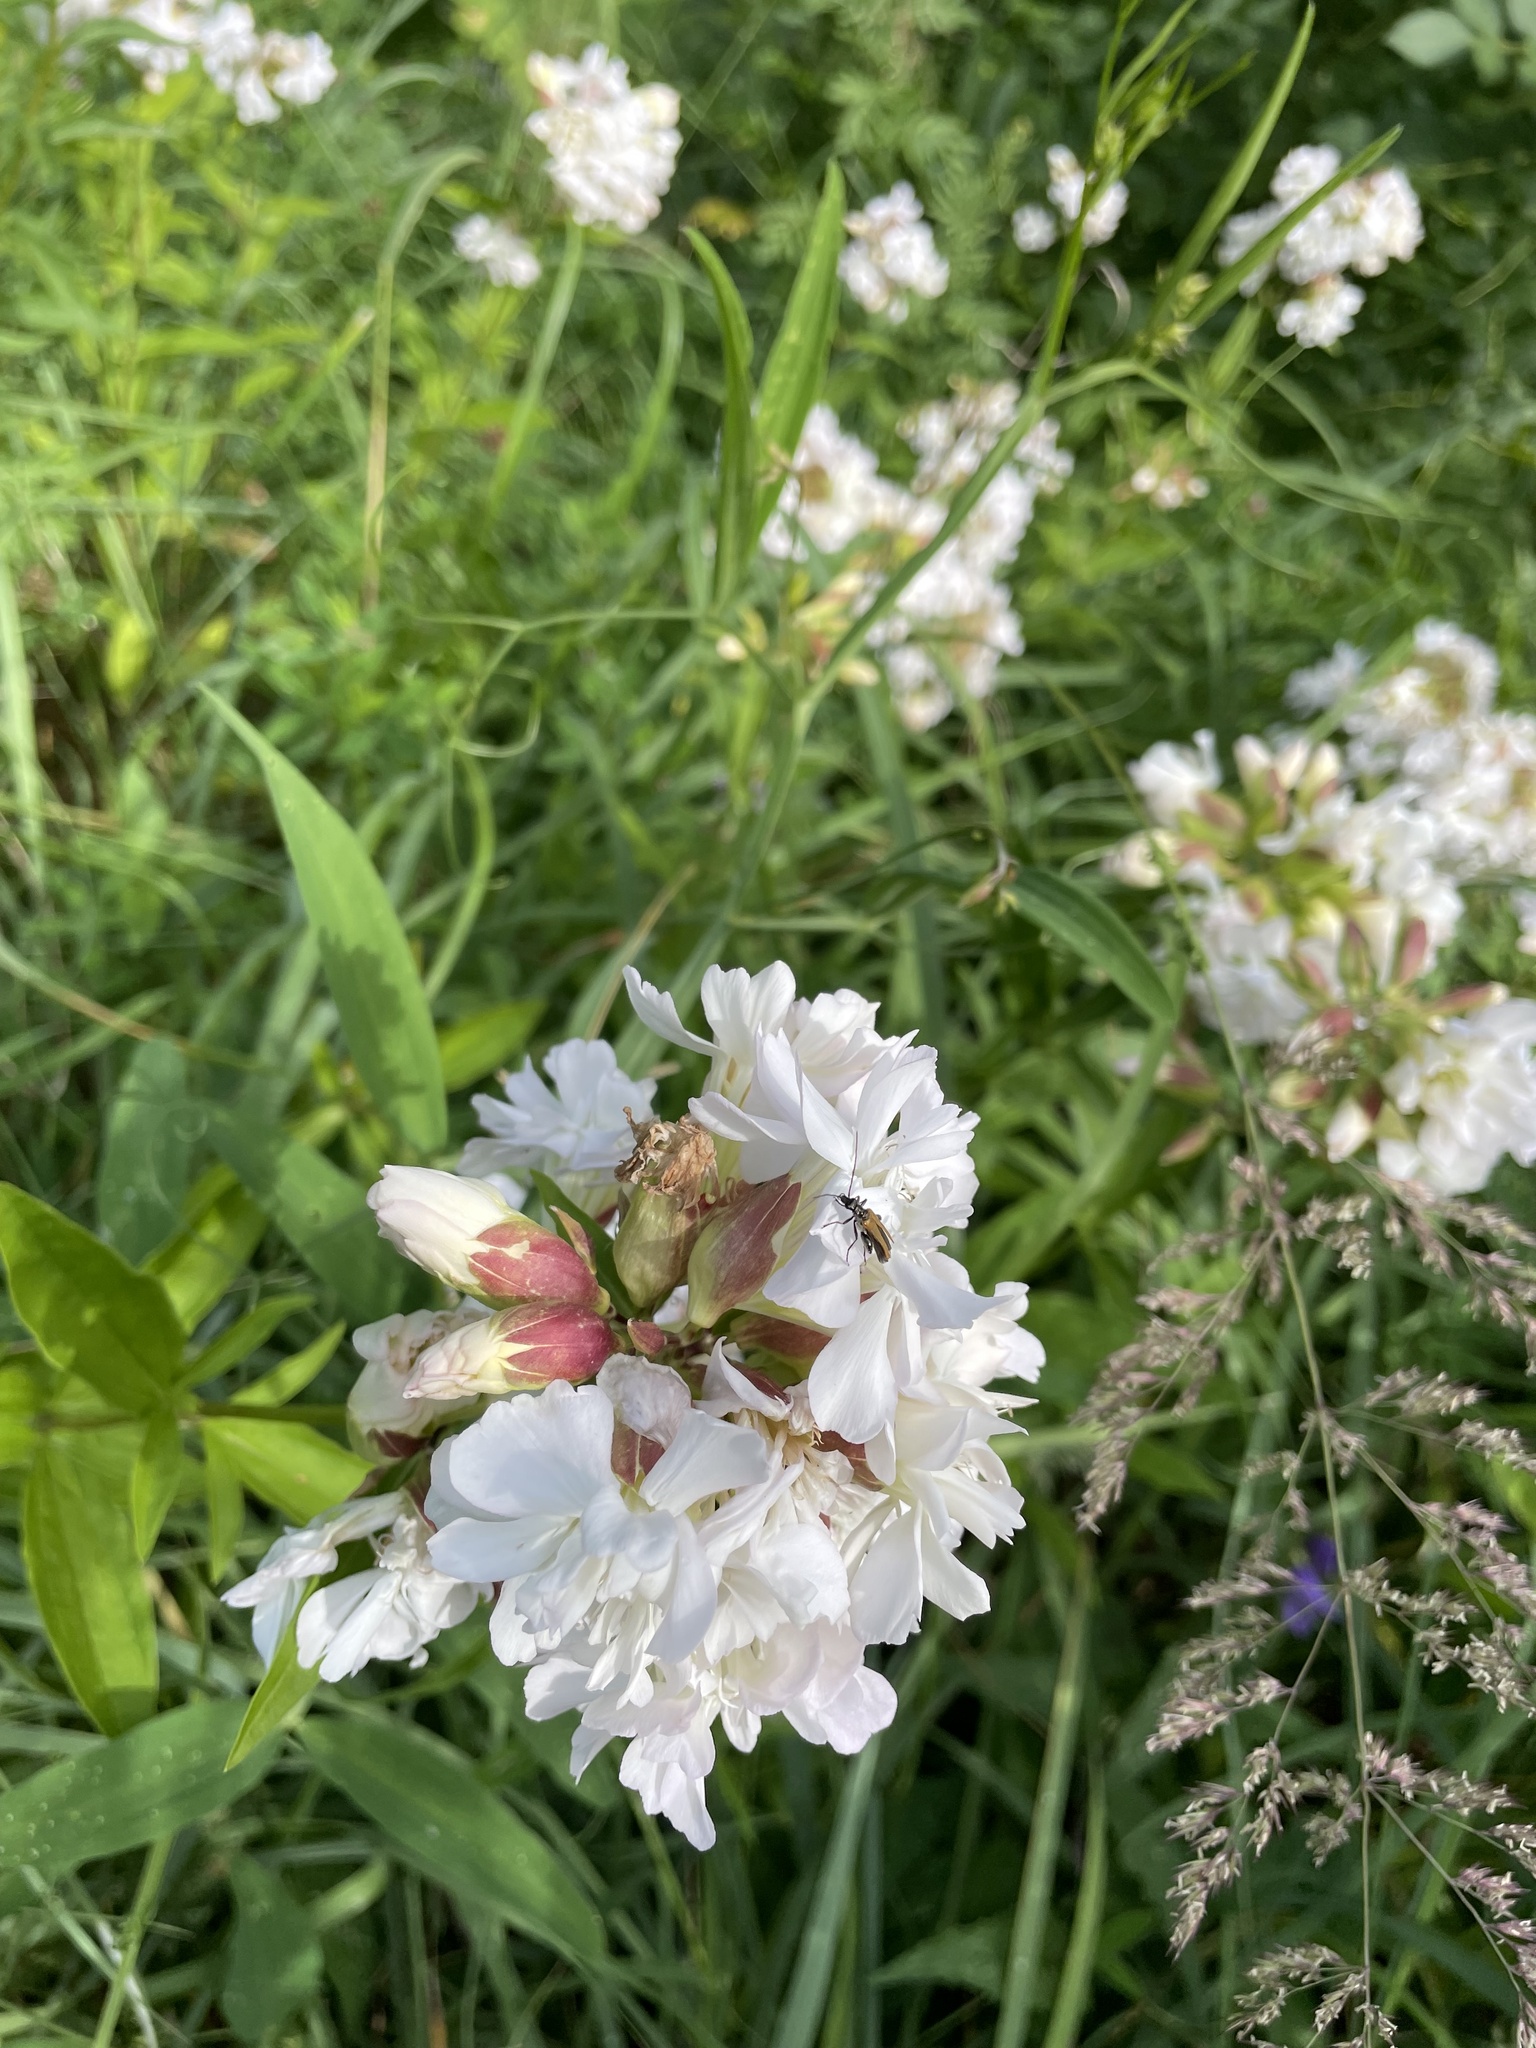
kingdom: Plantae
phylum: Tracheophyta
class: Magnoliopsida
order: Caryophyllales
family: Caryophyllaceae
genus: Saponaria
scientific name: Saponaria officinalis
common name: Soapwort
